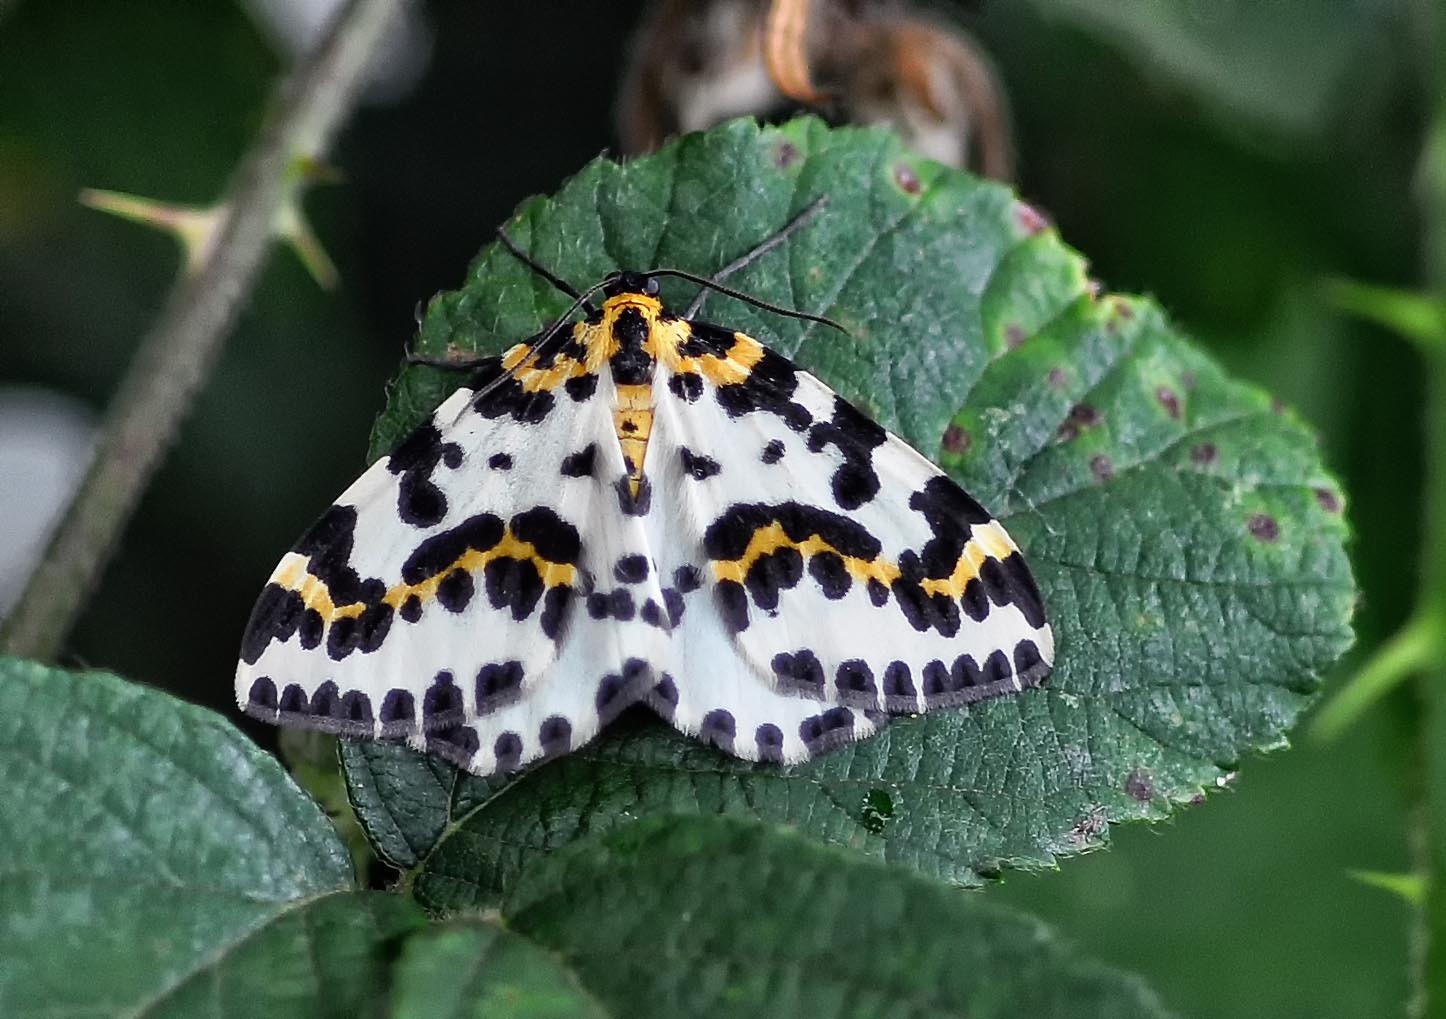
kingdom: Animalia
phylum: Arthropoda
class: Insecta
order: Lepidoptera
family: Geometridae
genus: Abraxas
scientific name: Abraxas grossulariata
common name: Magpie
